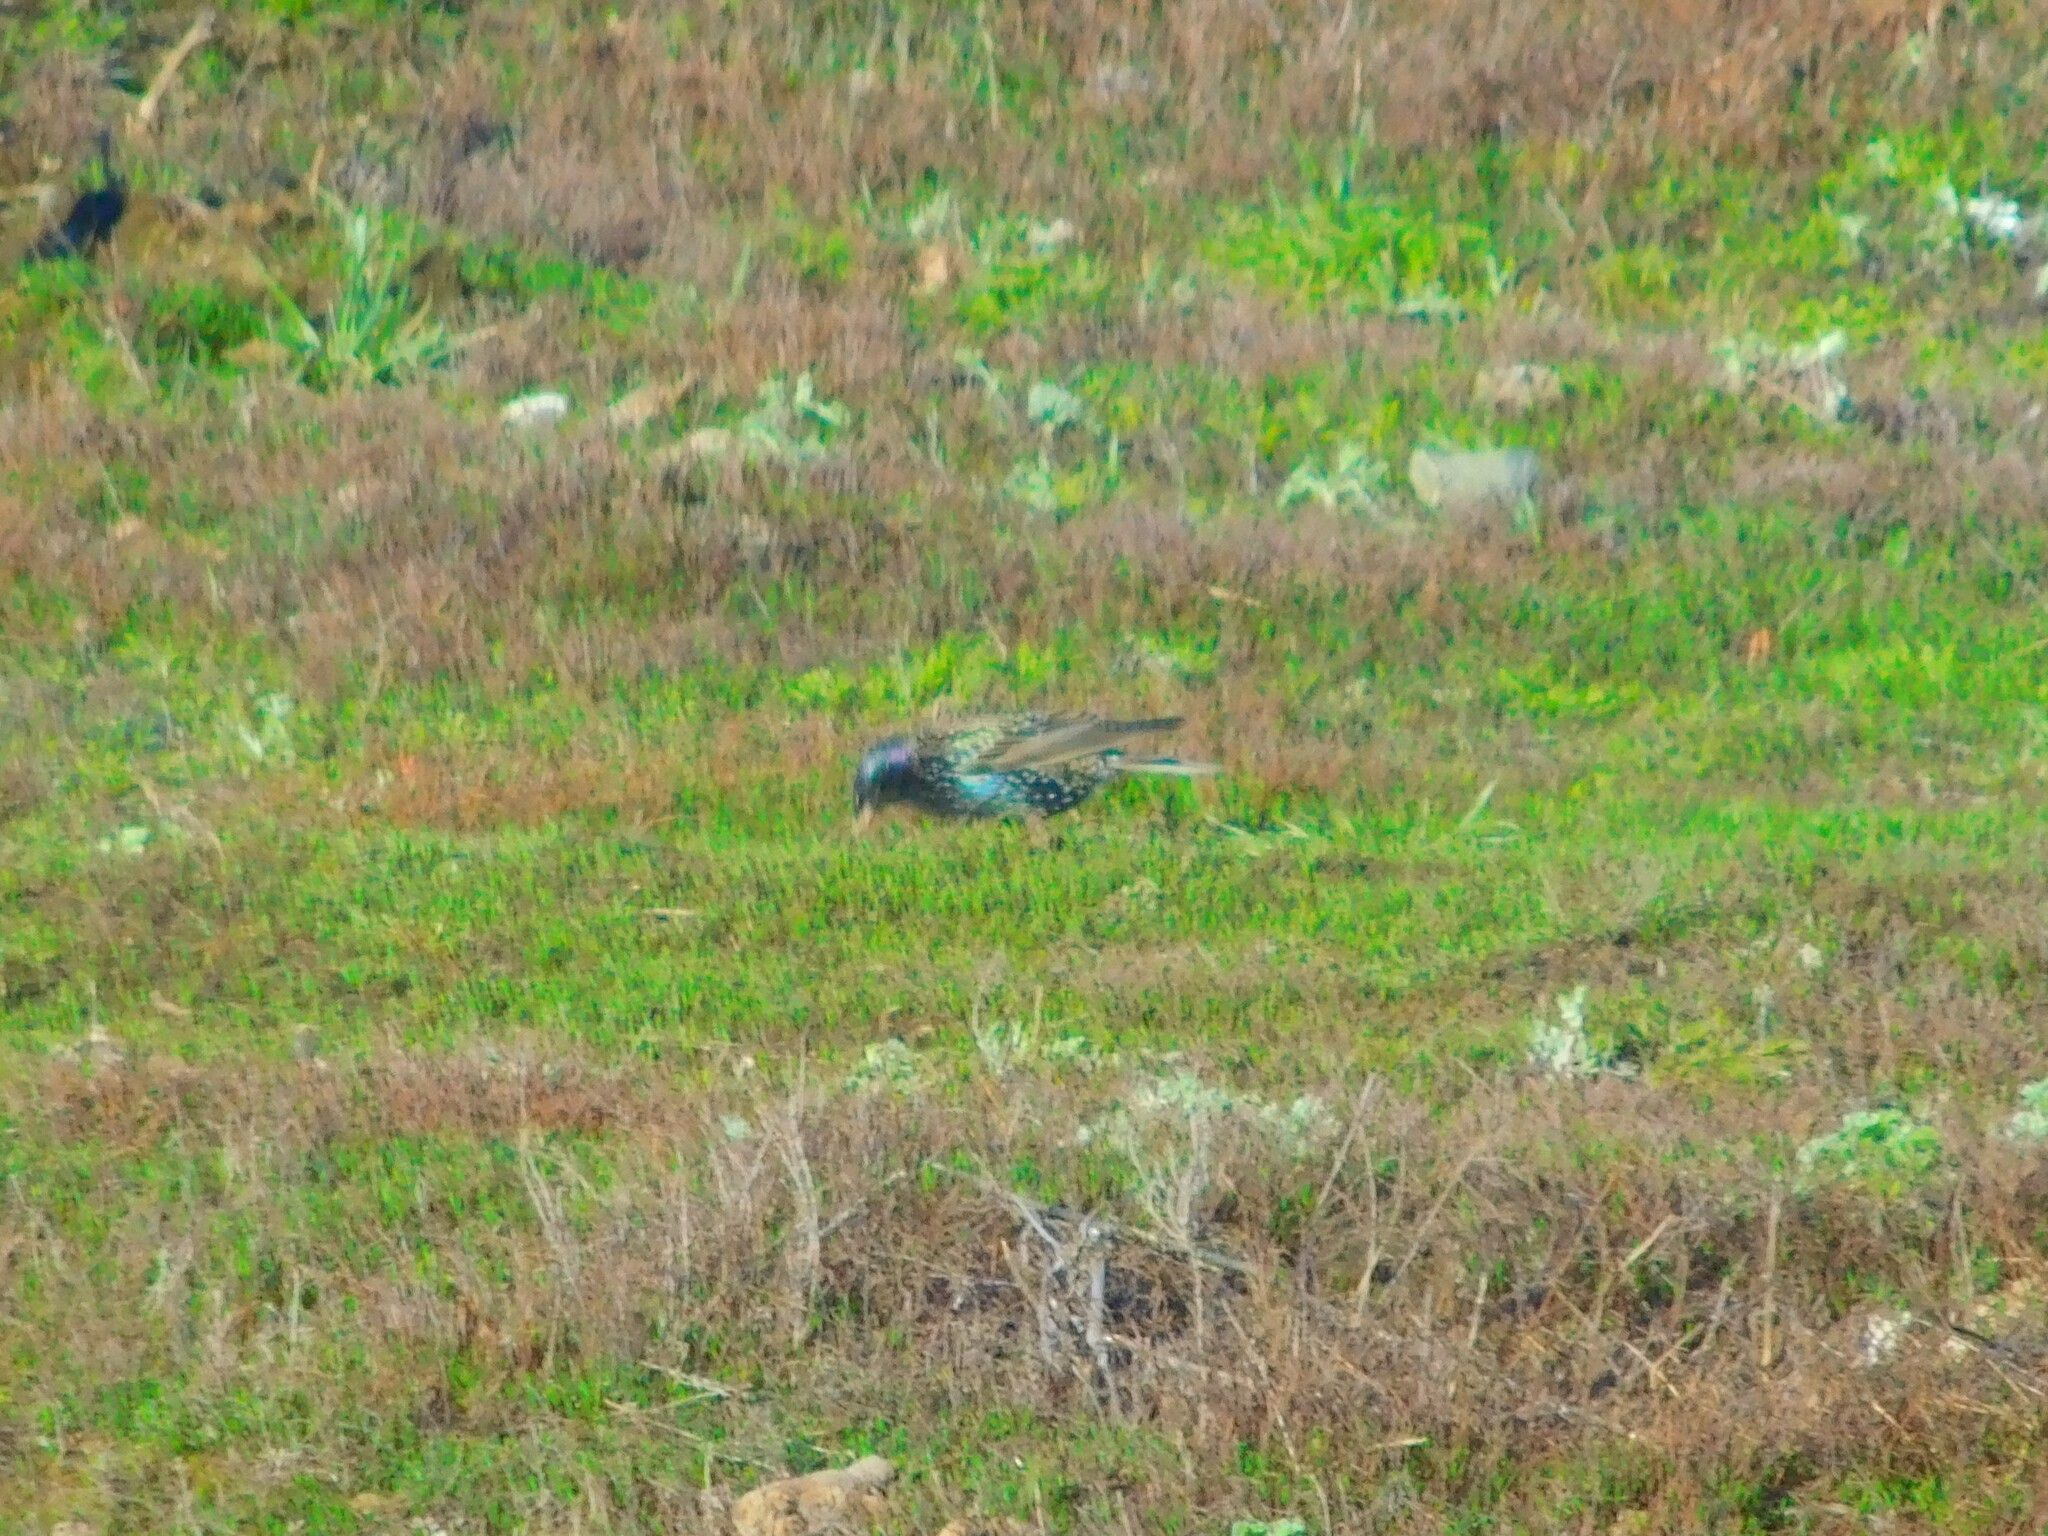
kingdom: Animalia
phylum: Chordata
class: Aves
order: Passeriformes
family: Sturnidae
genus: Sturnus
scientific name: Sturnus vulgaris
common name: Common starling
